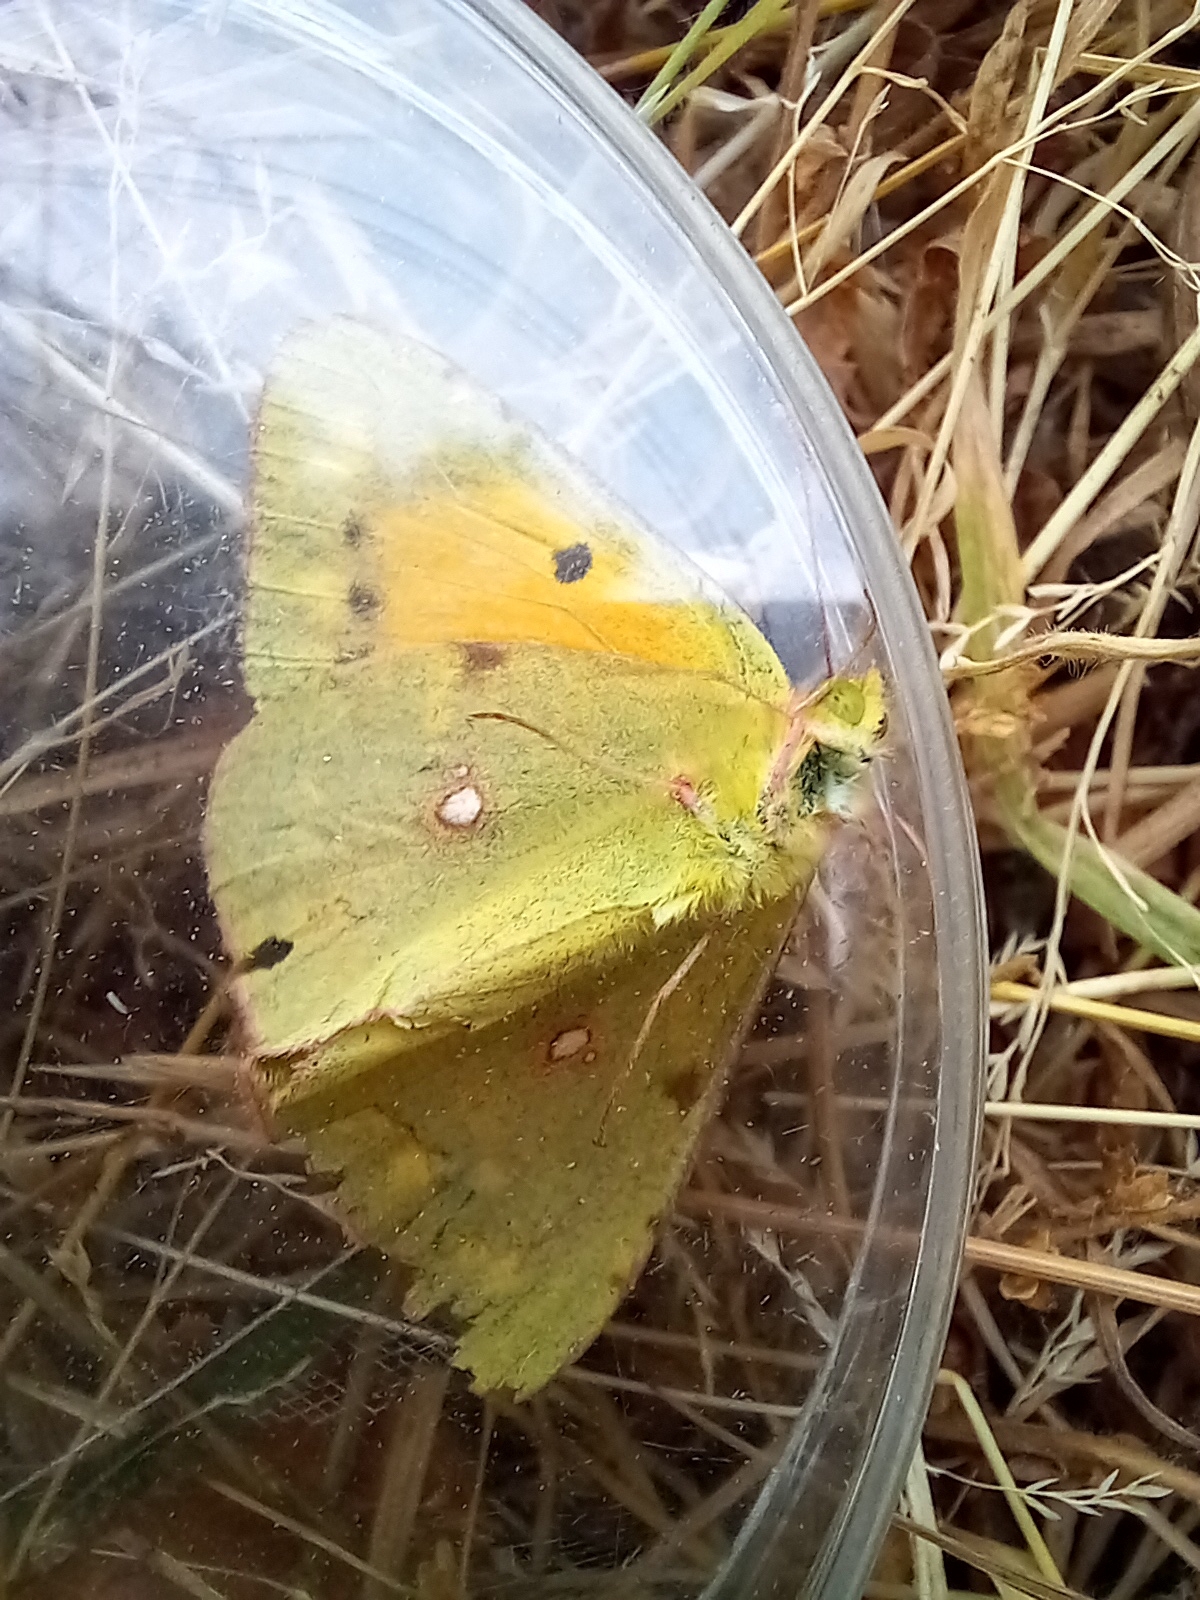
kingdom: Animalia
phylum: Arthropoda
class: Insecta
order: Lepidoptera
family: Pieridae
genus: Colias
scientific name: Colias croceus
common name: Clouded yellow
